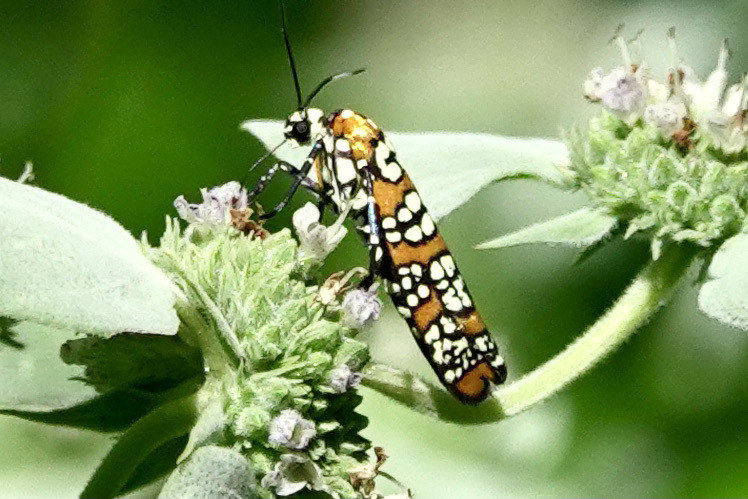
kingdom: Animalia
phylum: Arthropoda
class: Insecta
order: Lepidoptera
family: Attevidae
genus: Atteva
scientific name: Atteva punctella
